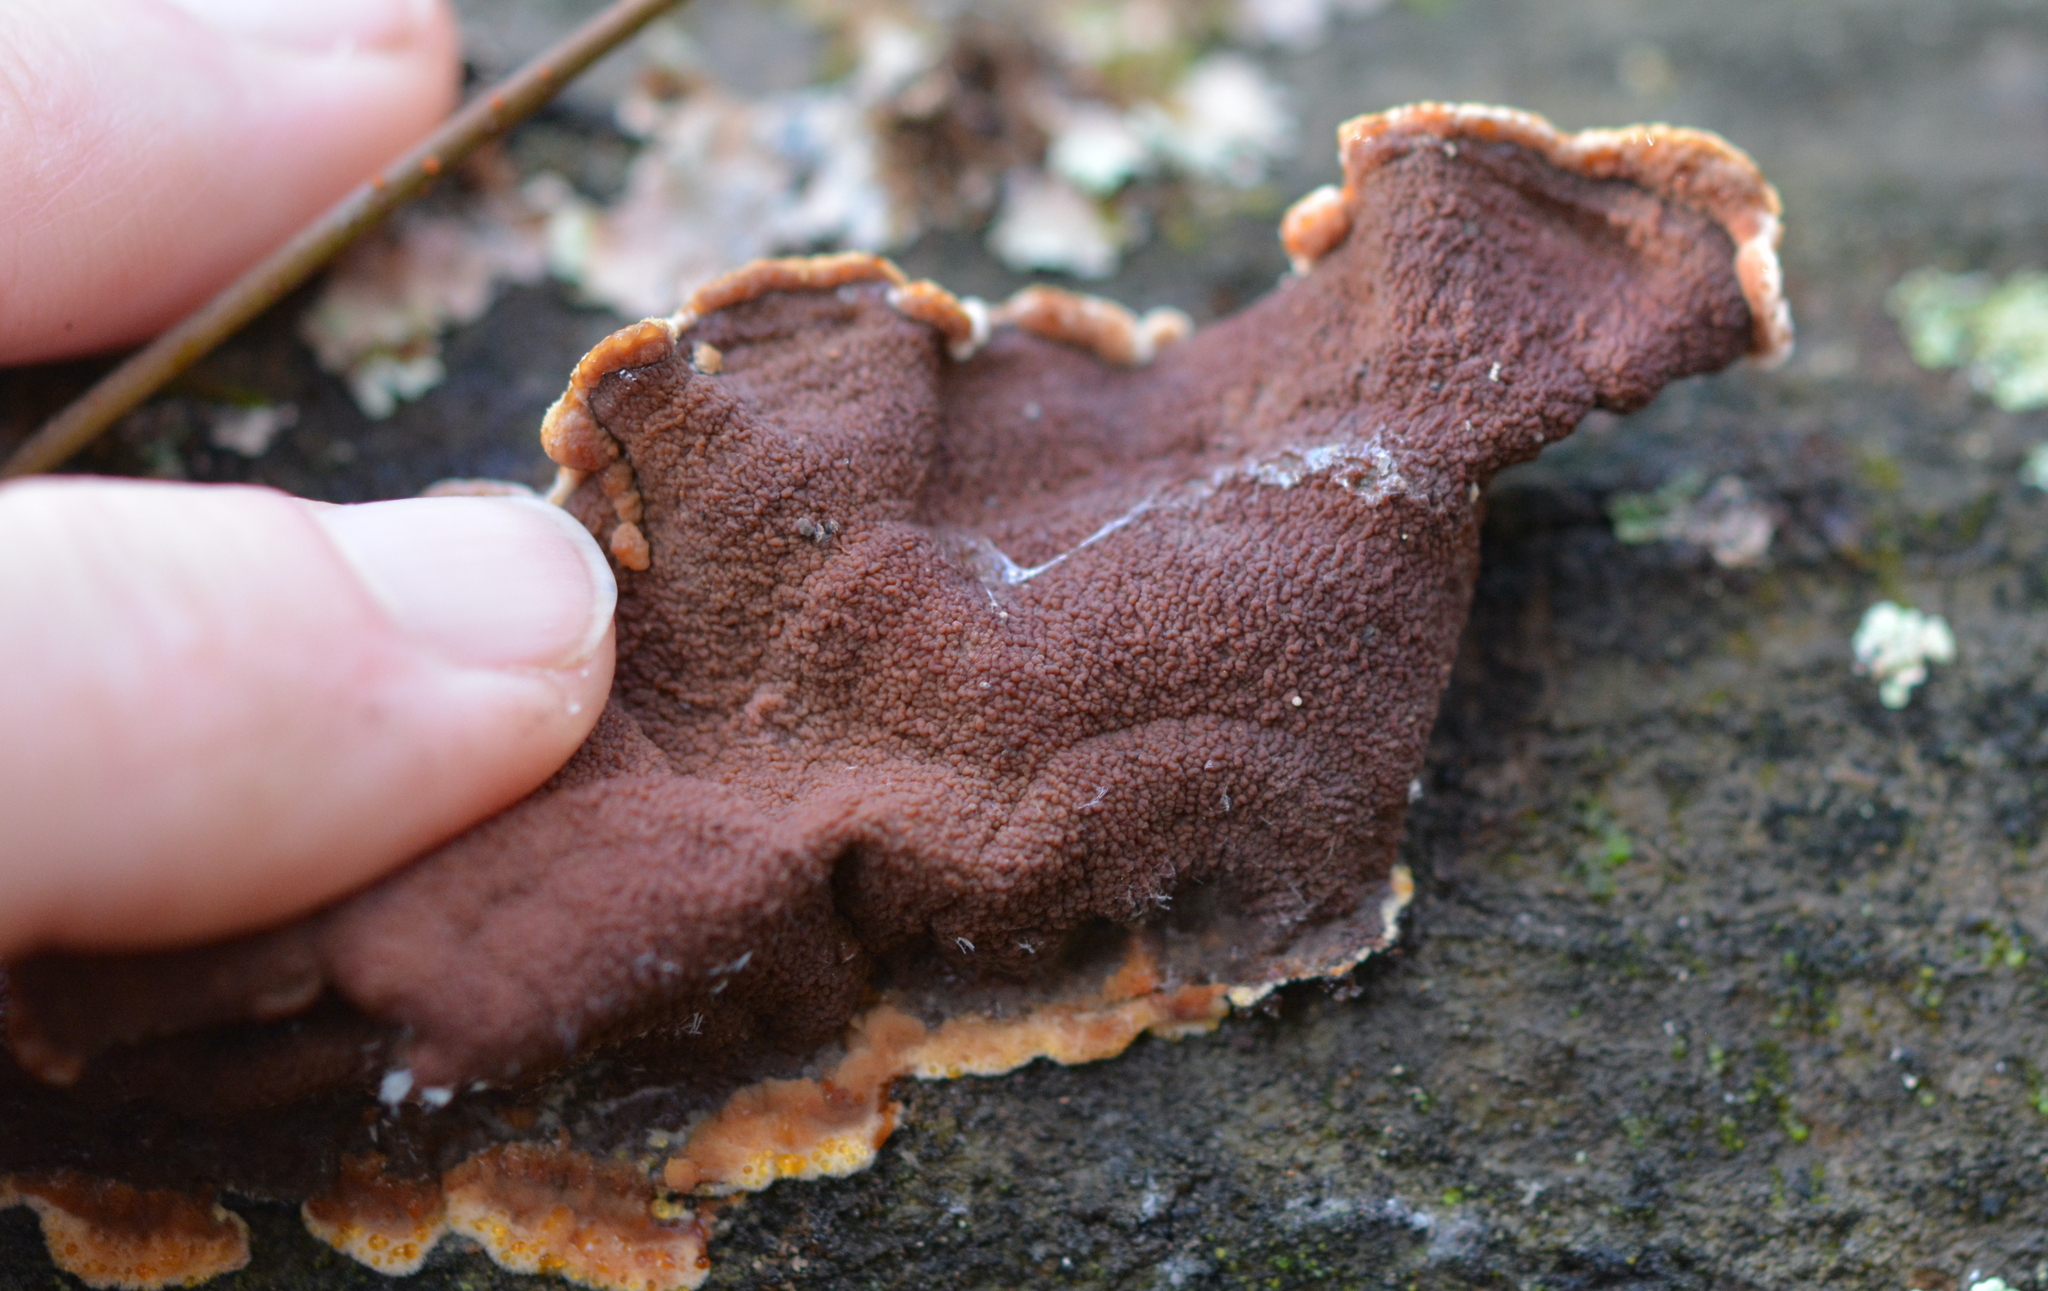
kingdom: Fungi
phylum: Basidiomycota
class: Agaricomycetes
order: Corticiales
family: Punctulariaceae
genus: Punctularia
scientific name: Punctularia strigosozonata
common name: White-rot fungus
